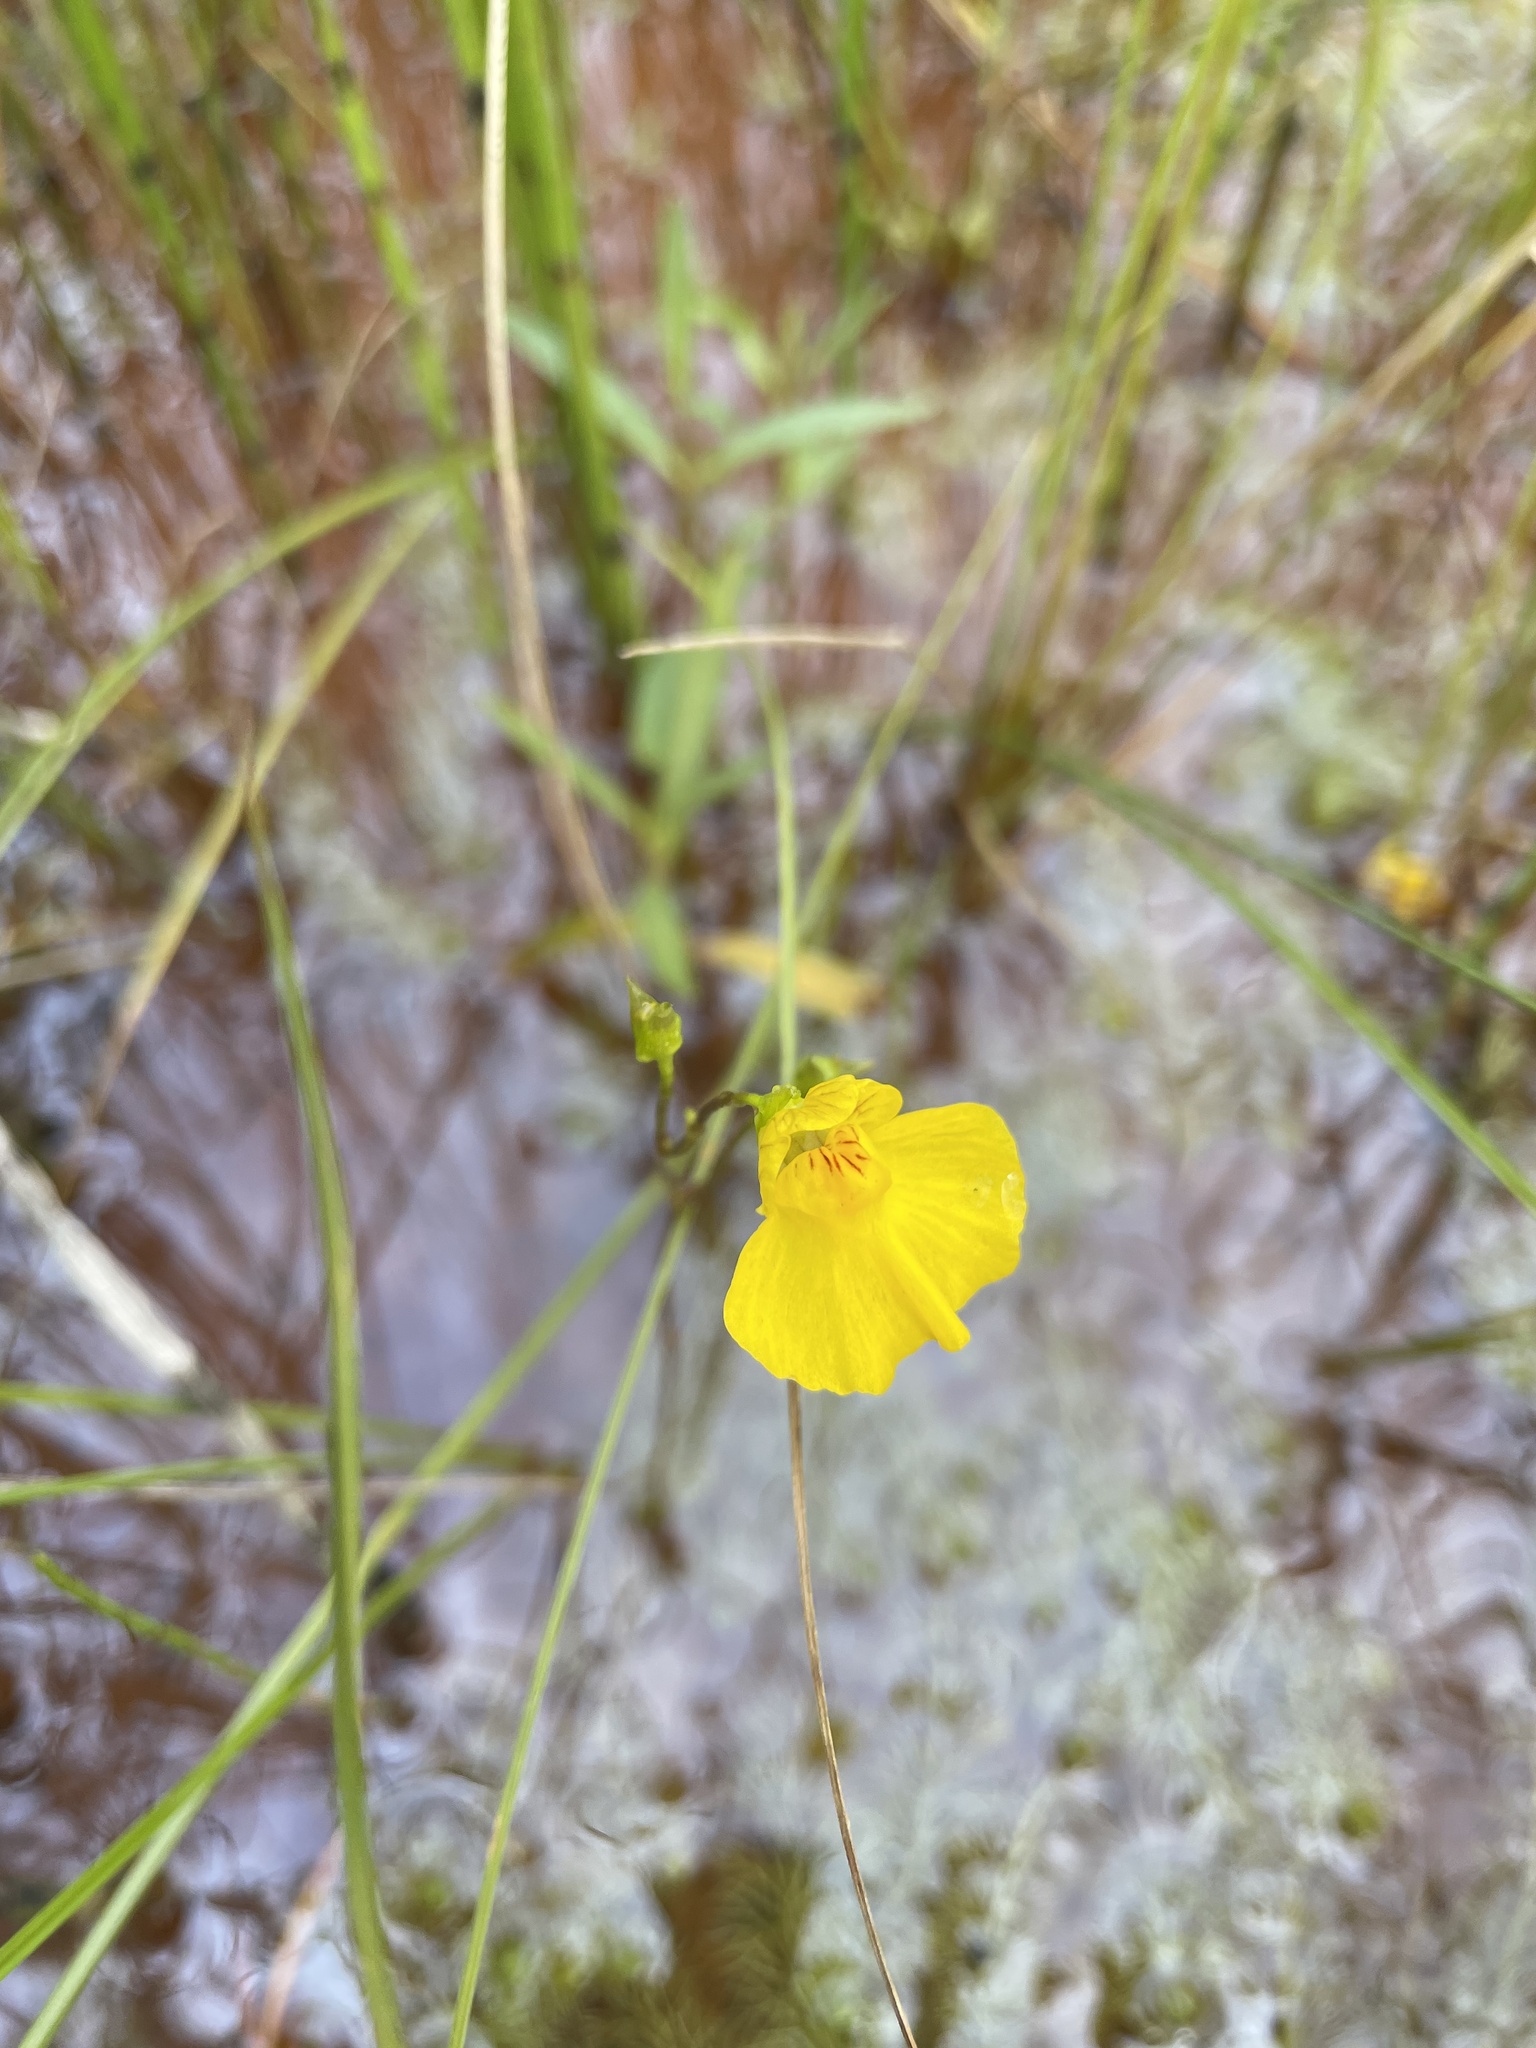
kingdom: Plantae
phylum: Tracheophyta
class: Magnoliopsida
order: Lamiales
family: Lentibulariaceae
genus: Utricularia
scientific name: Utricularia intermedia
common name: Intermediate bladderwort
